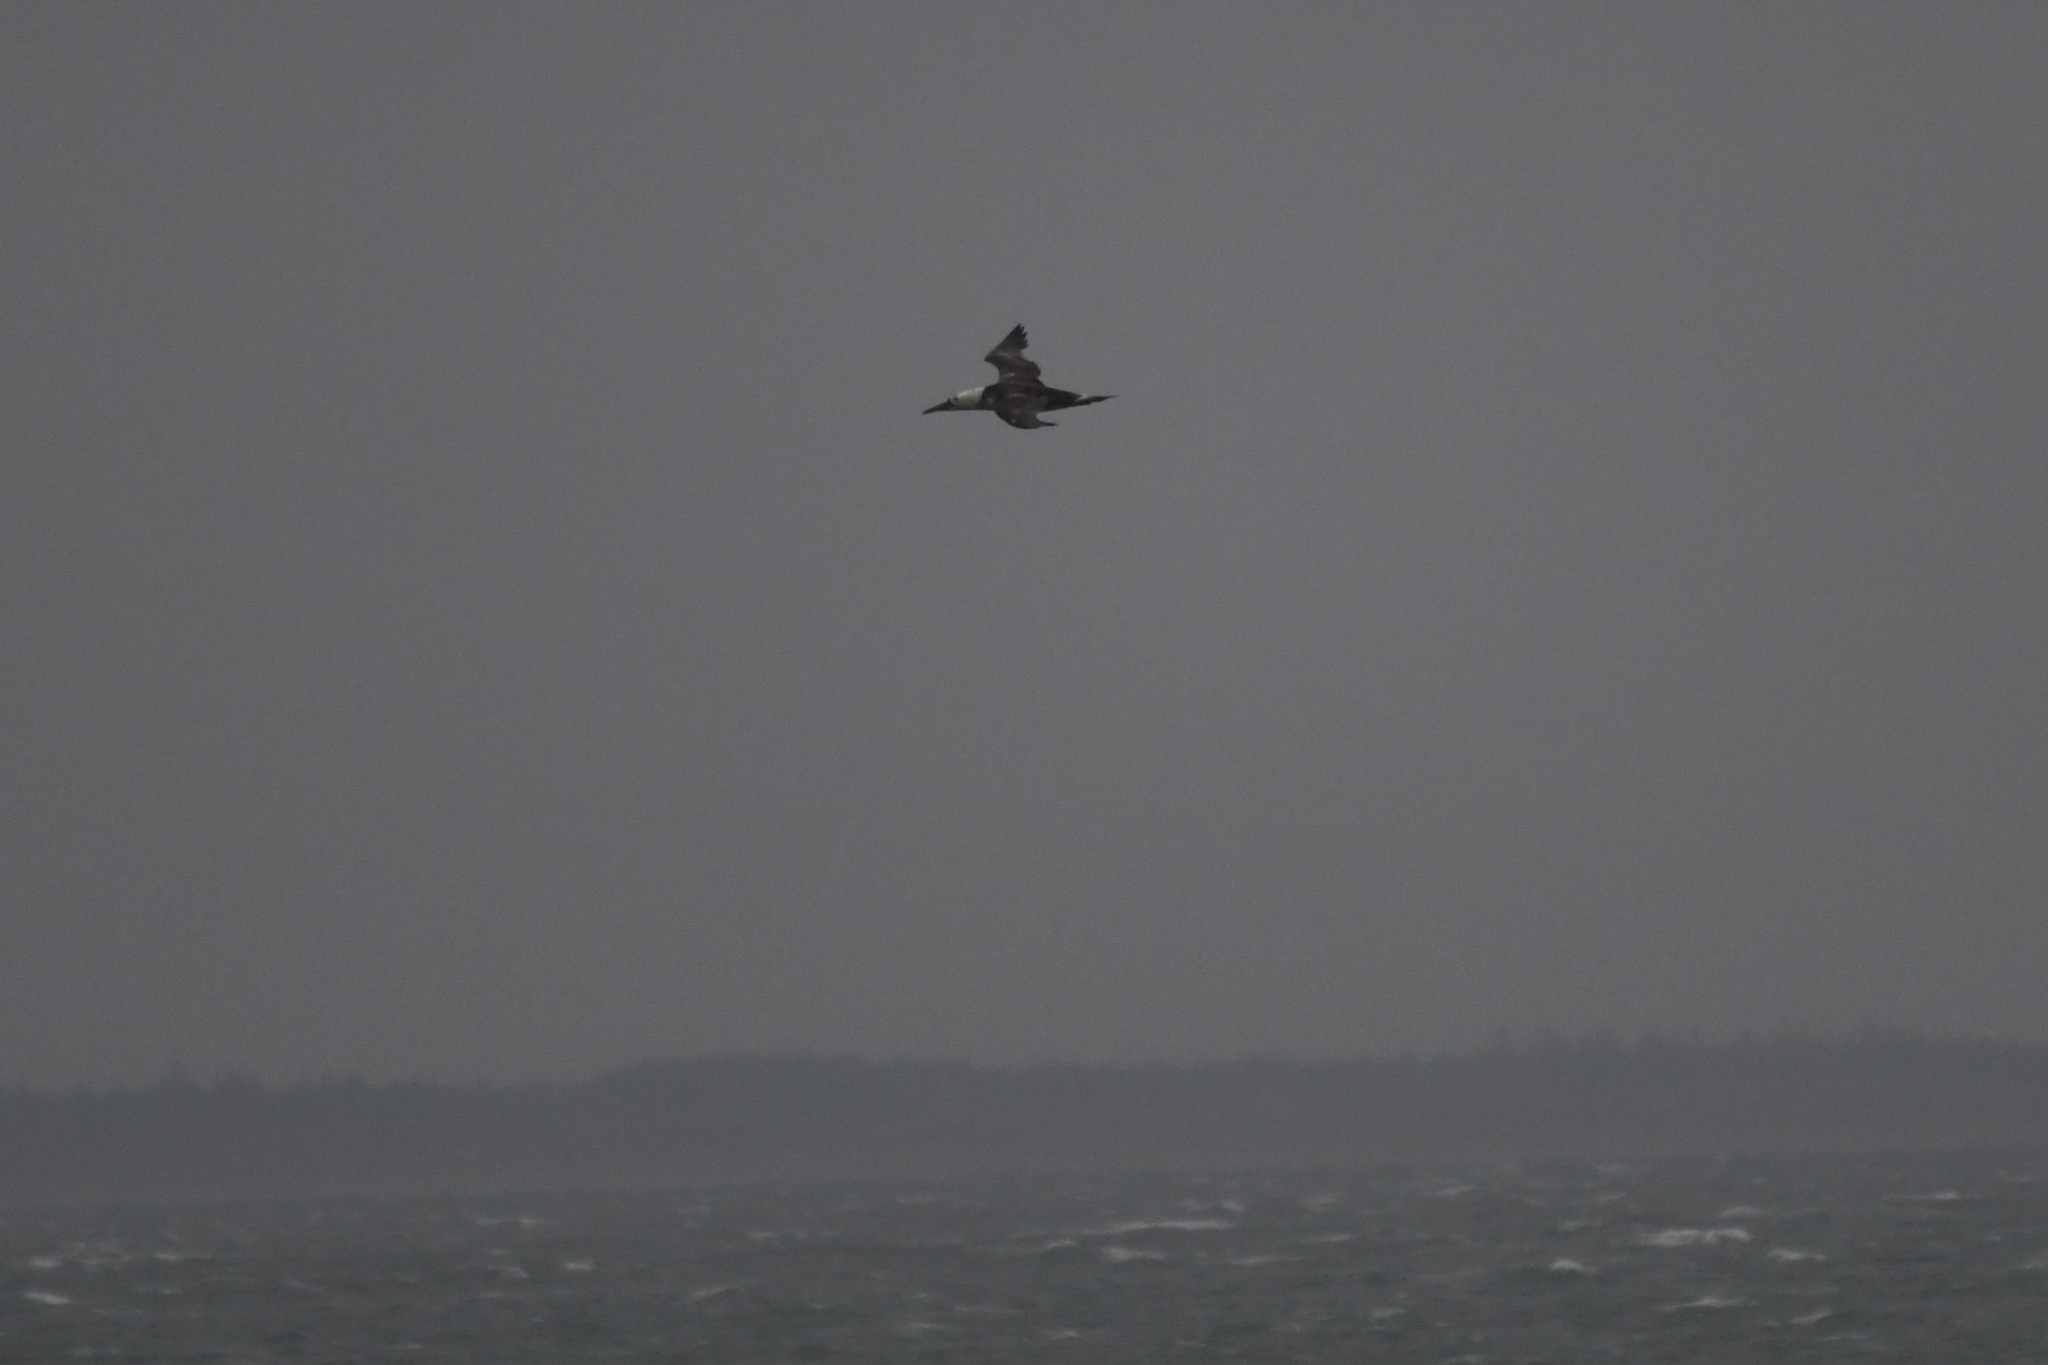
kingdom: Animalia
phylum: Chordata
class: Aves
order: Suliformes
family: Sulidae
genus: Morus
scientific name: Morus bassanus
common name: Northern gannet
